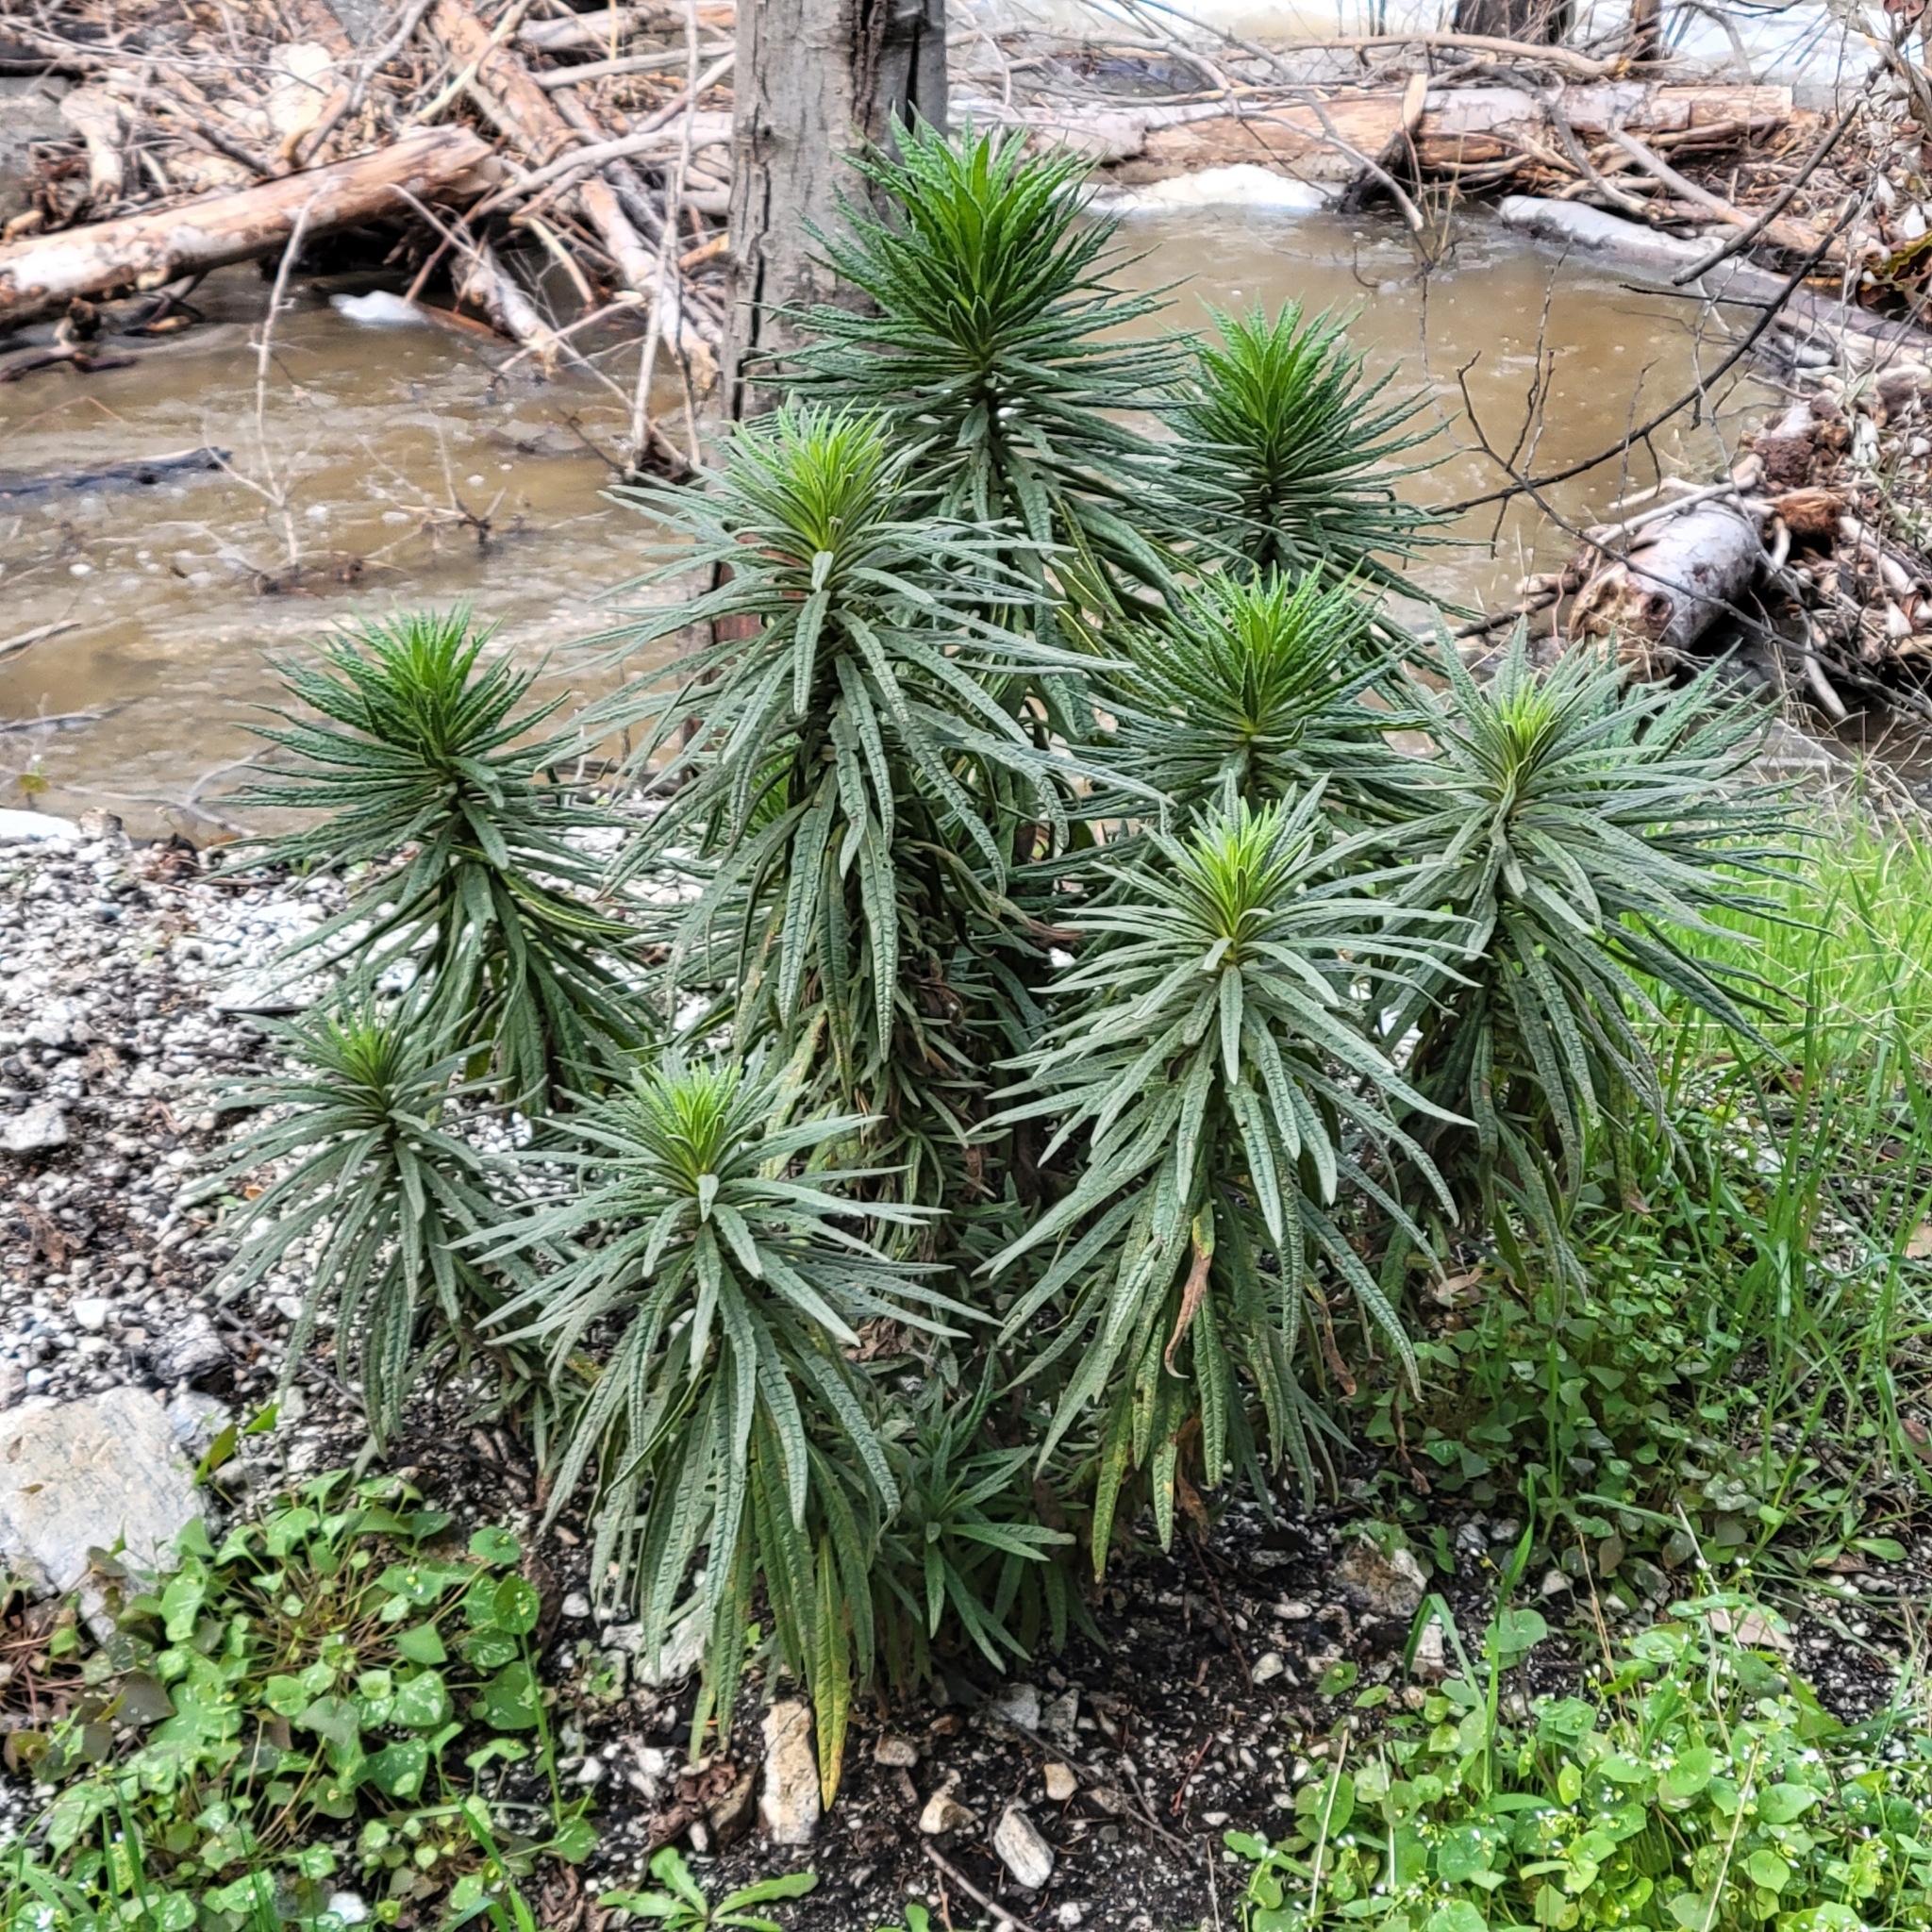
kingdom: Plantae
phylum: Tracheophyta
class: Magnoliopsida
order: Boraginales
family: Namaceae
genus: Turricula
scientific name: Turricula parryi
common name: Poodle-dog-bush
